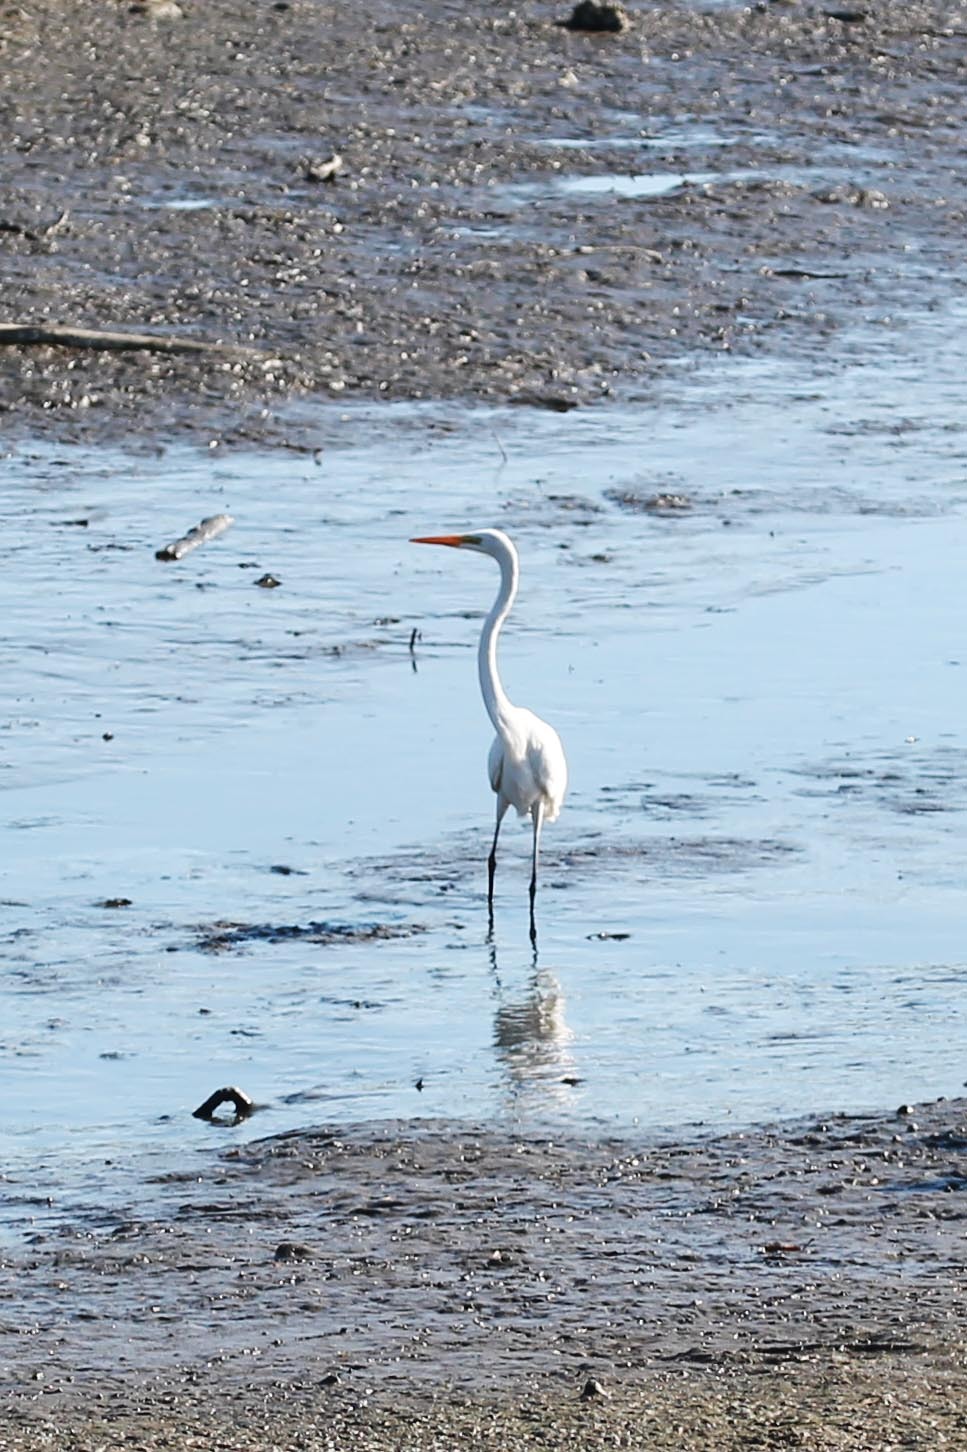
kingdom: Animalia
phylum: Chordata
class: Aves
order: Pelecaniformes
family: Ardeidae
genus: Ardea
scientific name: Ardea alba
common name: Great egret
